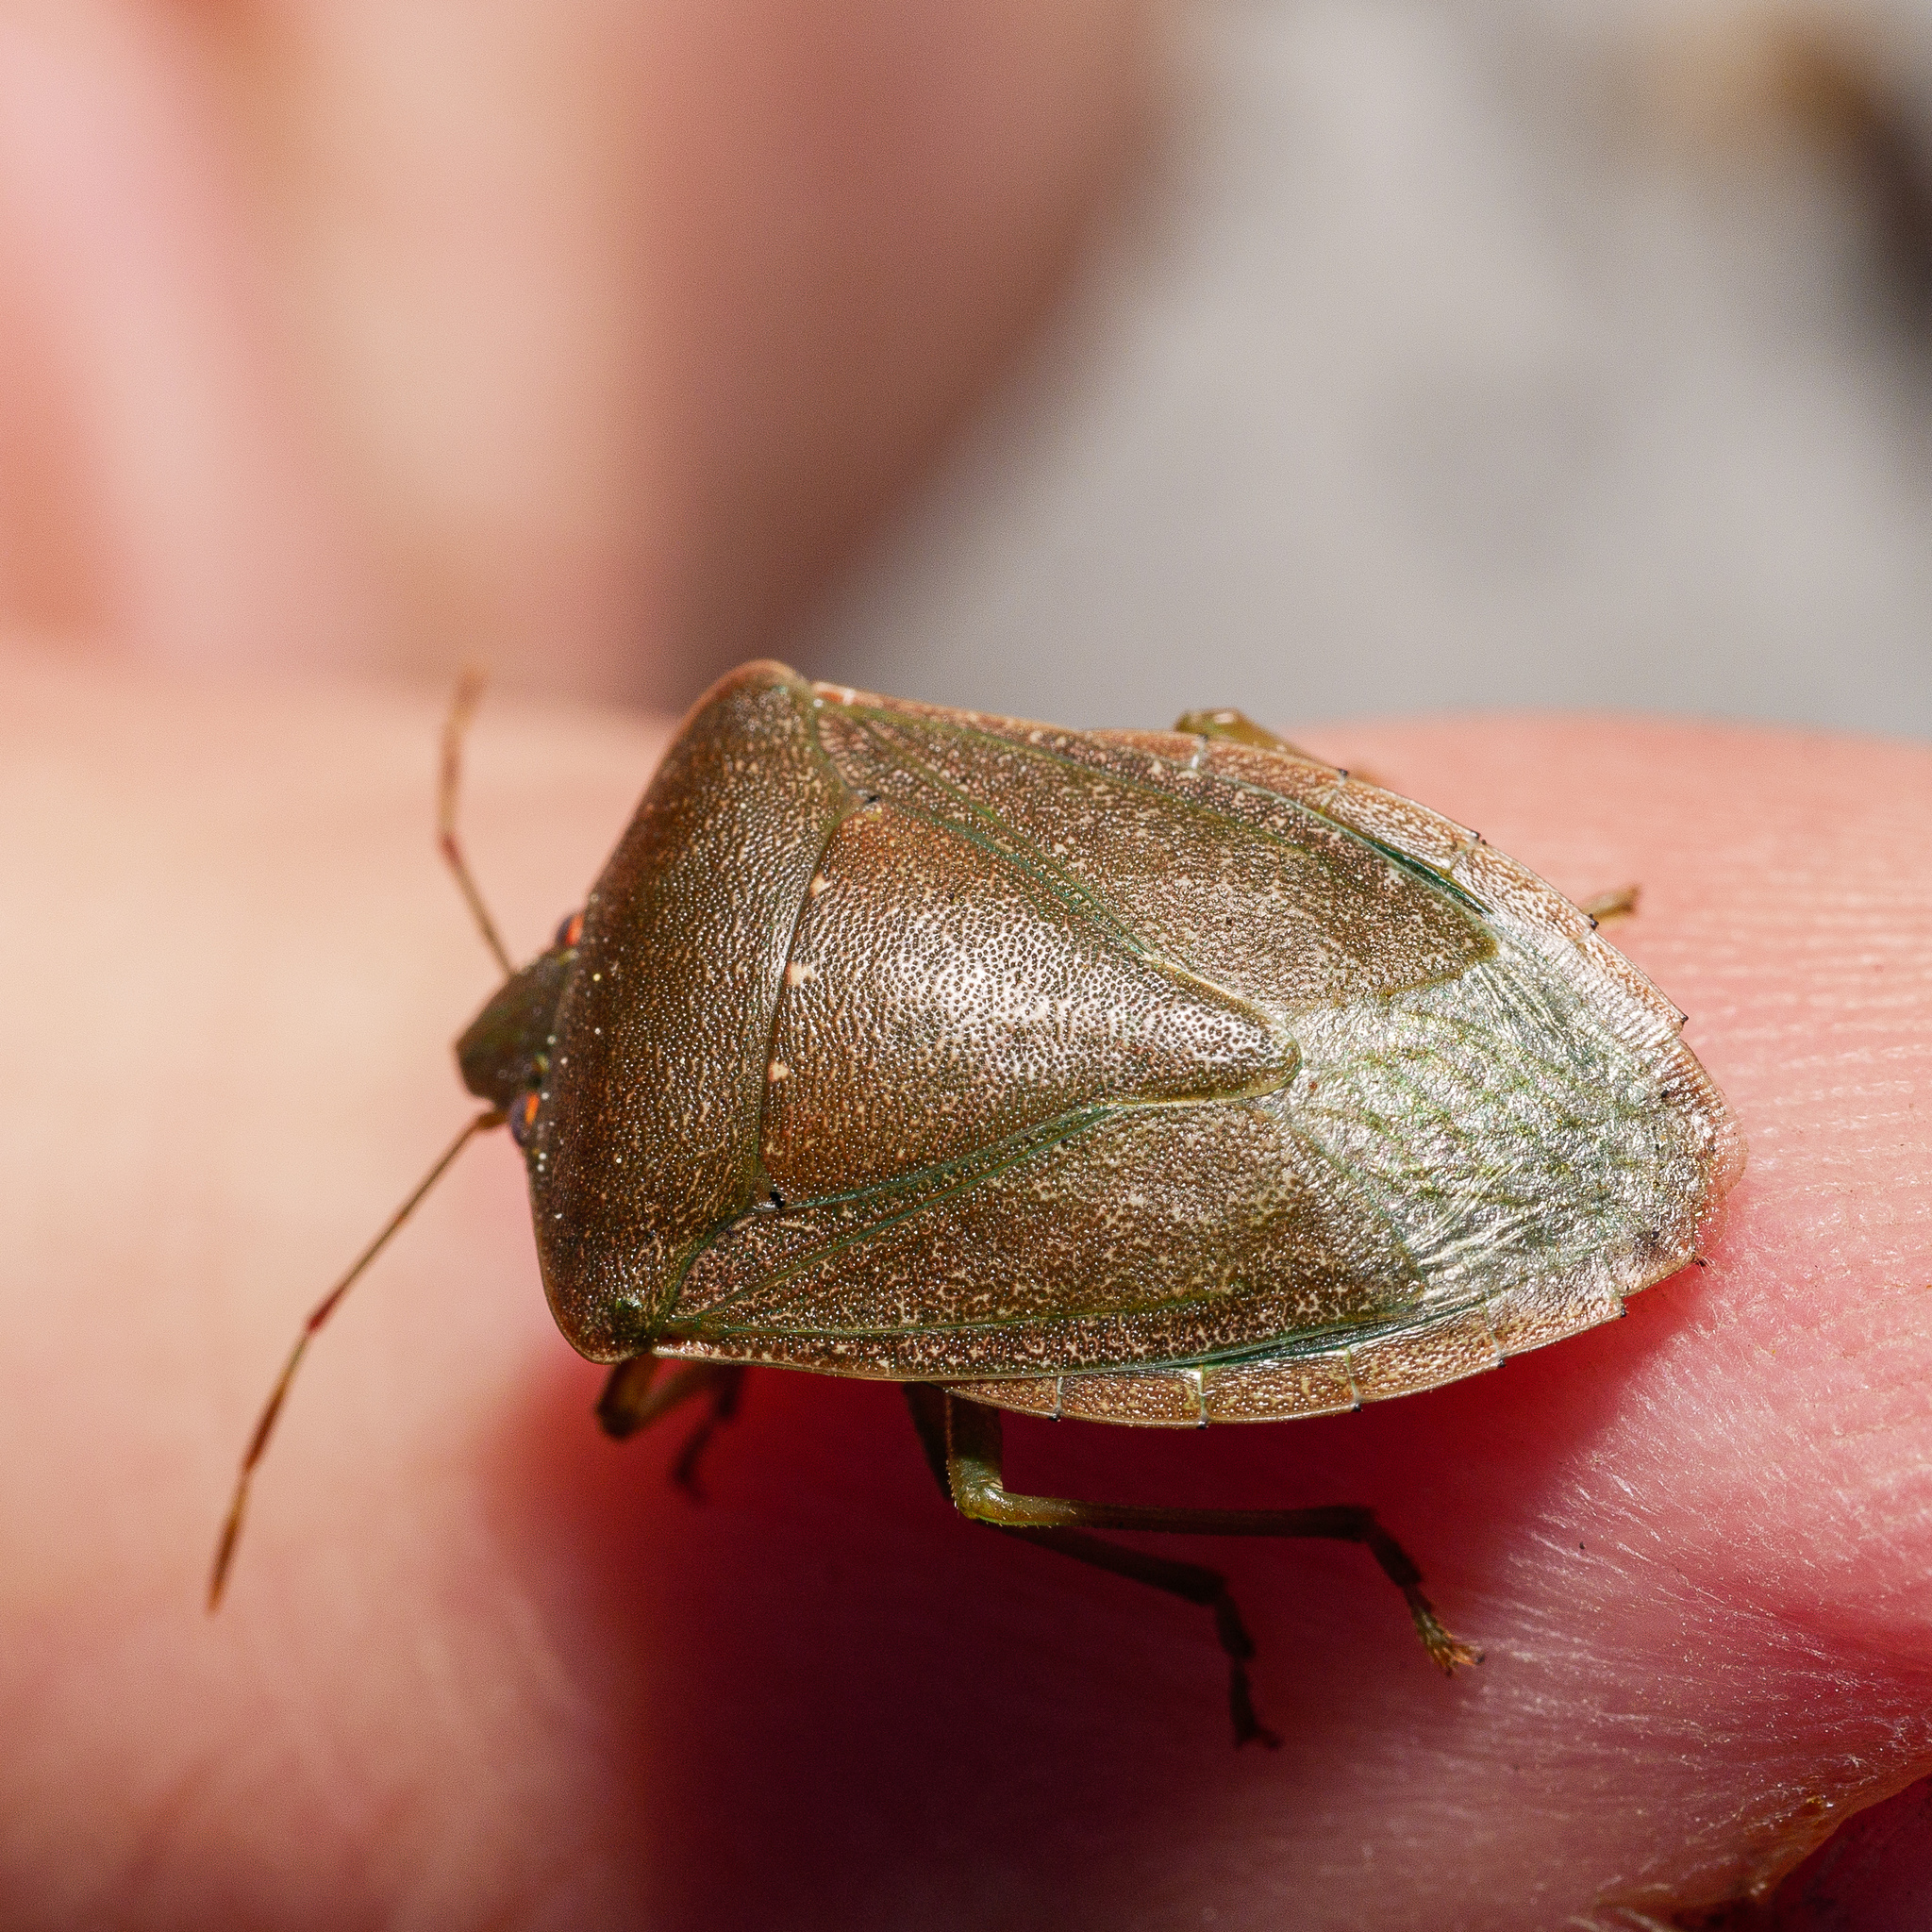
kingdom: Animalia
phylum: Arthropoda
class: Insecta
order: Hemiptera
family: Pentatomidae
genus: Nezara
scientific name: Nezara viridula
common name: Southern green stink bug
